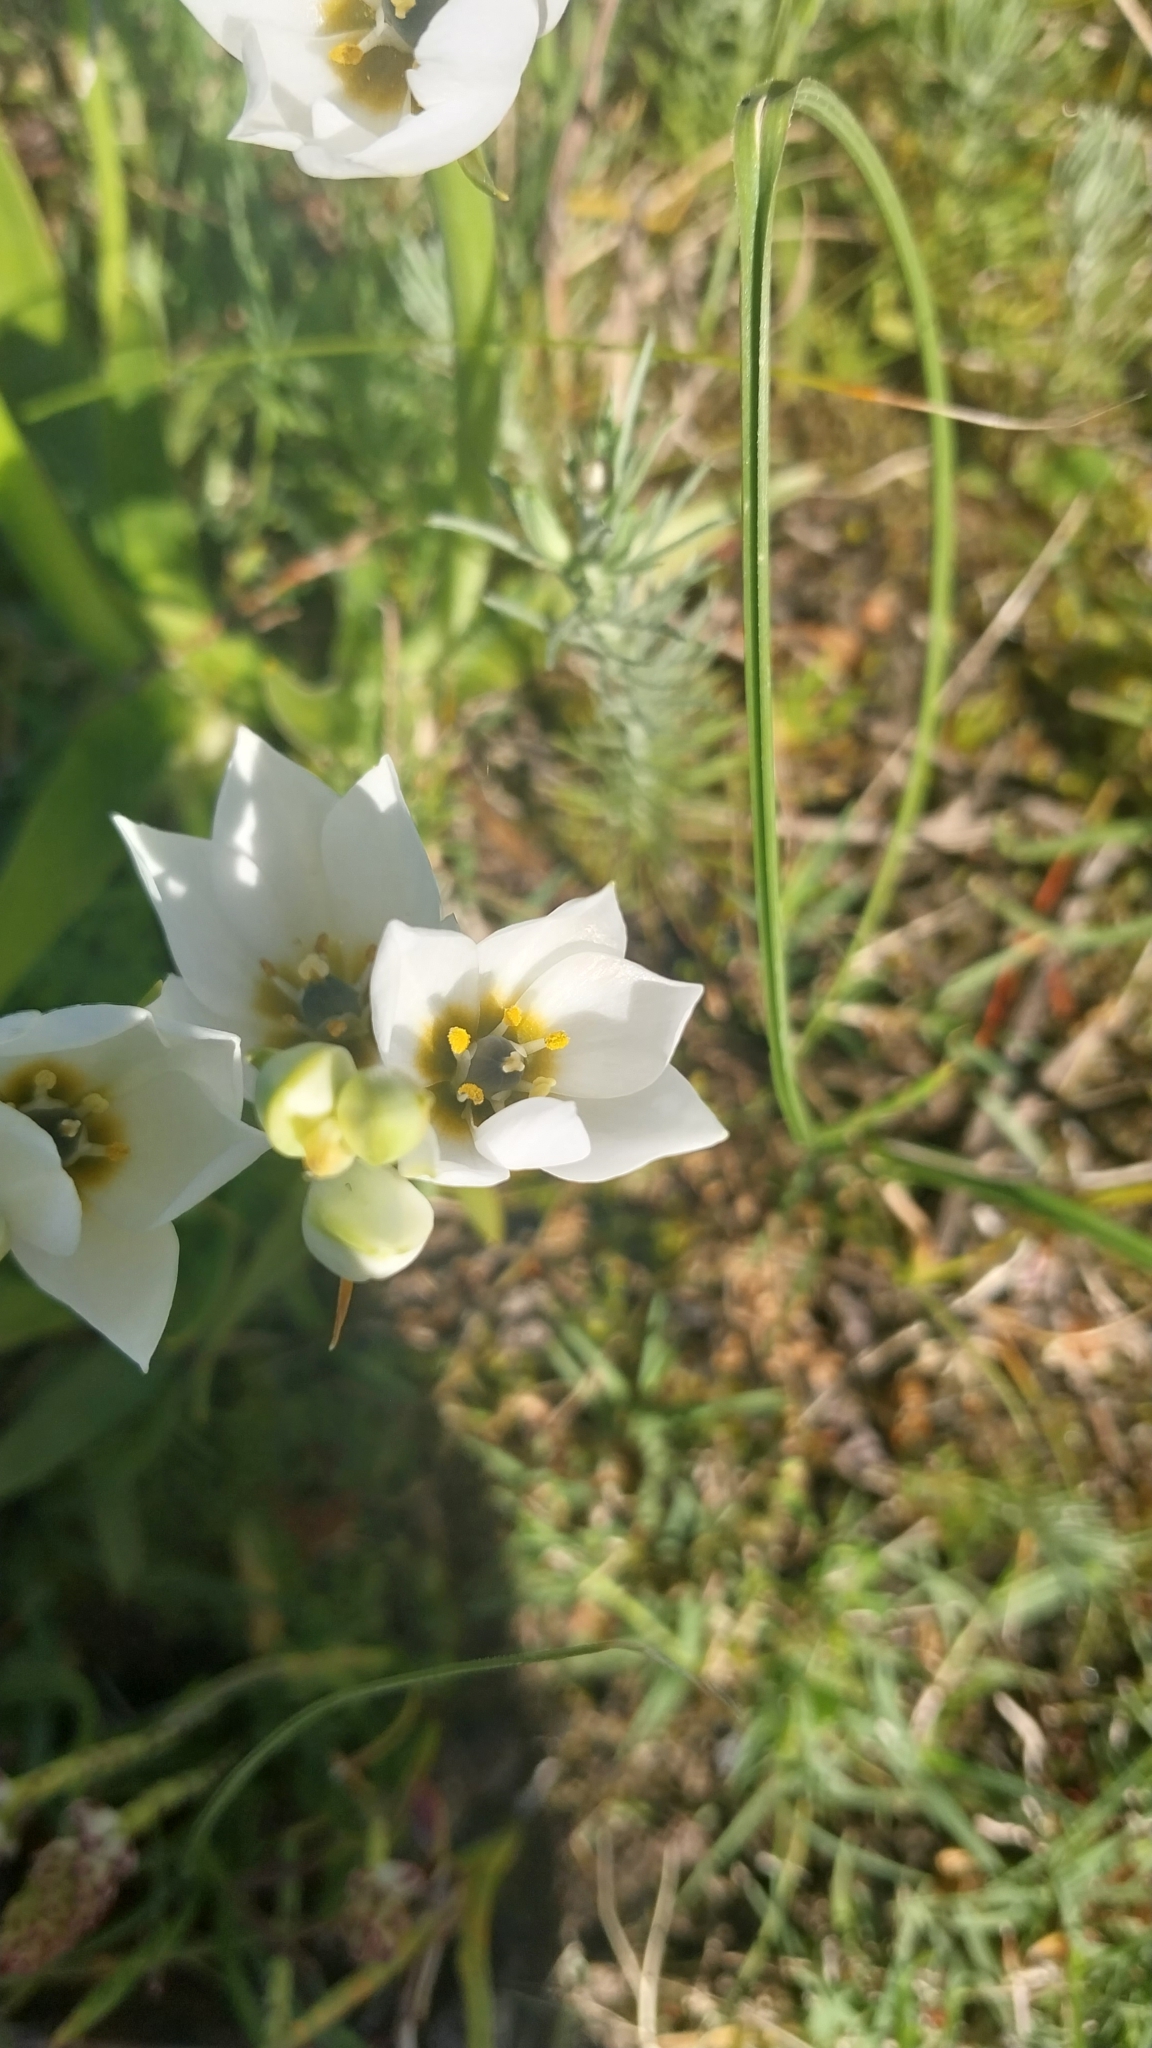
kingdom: Plantae
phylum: Tracheophyta
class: Liliopsida
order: Asparagales
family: Asparagaceae
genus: Ornithogalum
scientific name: Ornithogalum thyrsoides
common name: Chincherinchee
